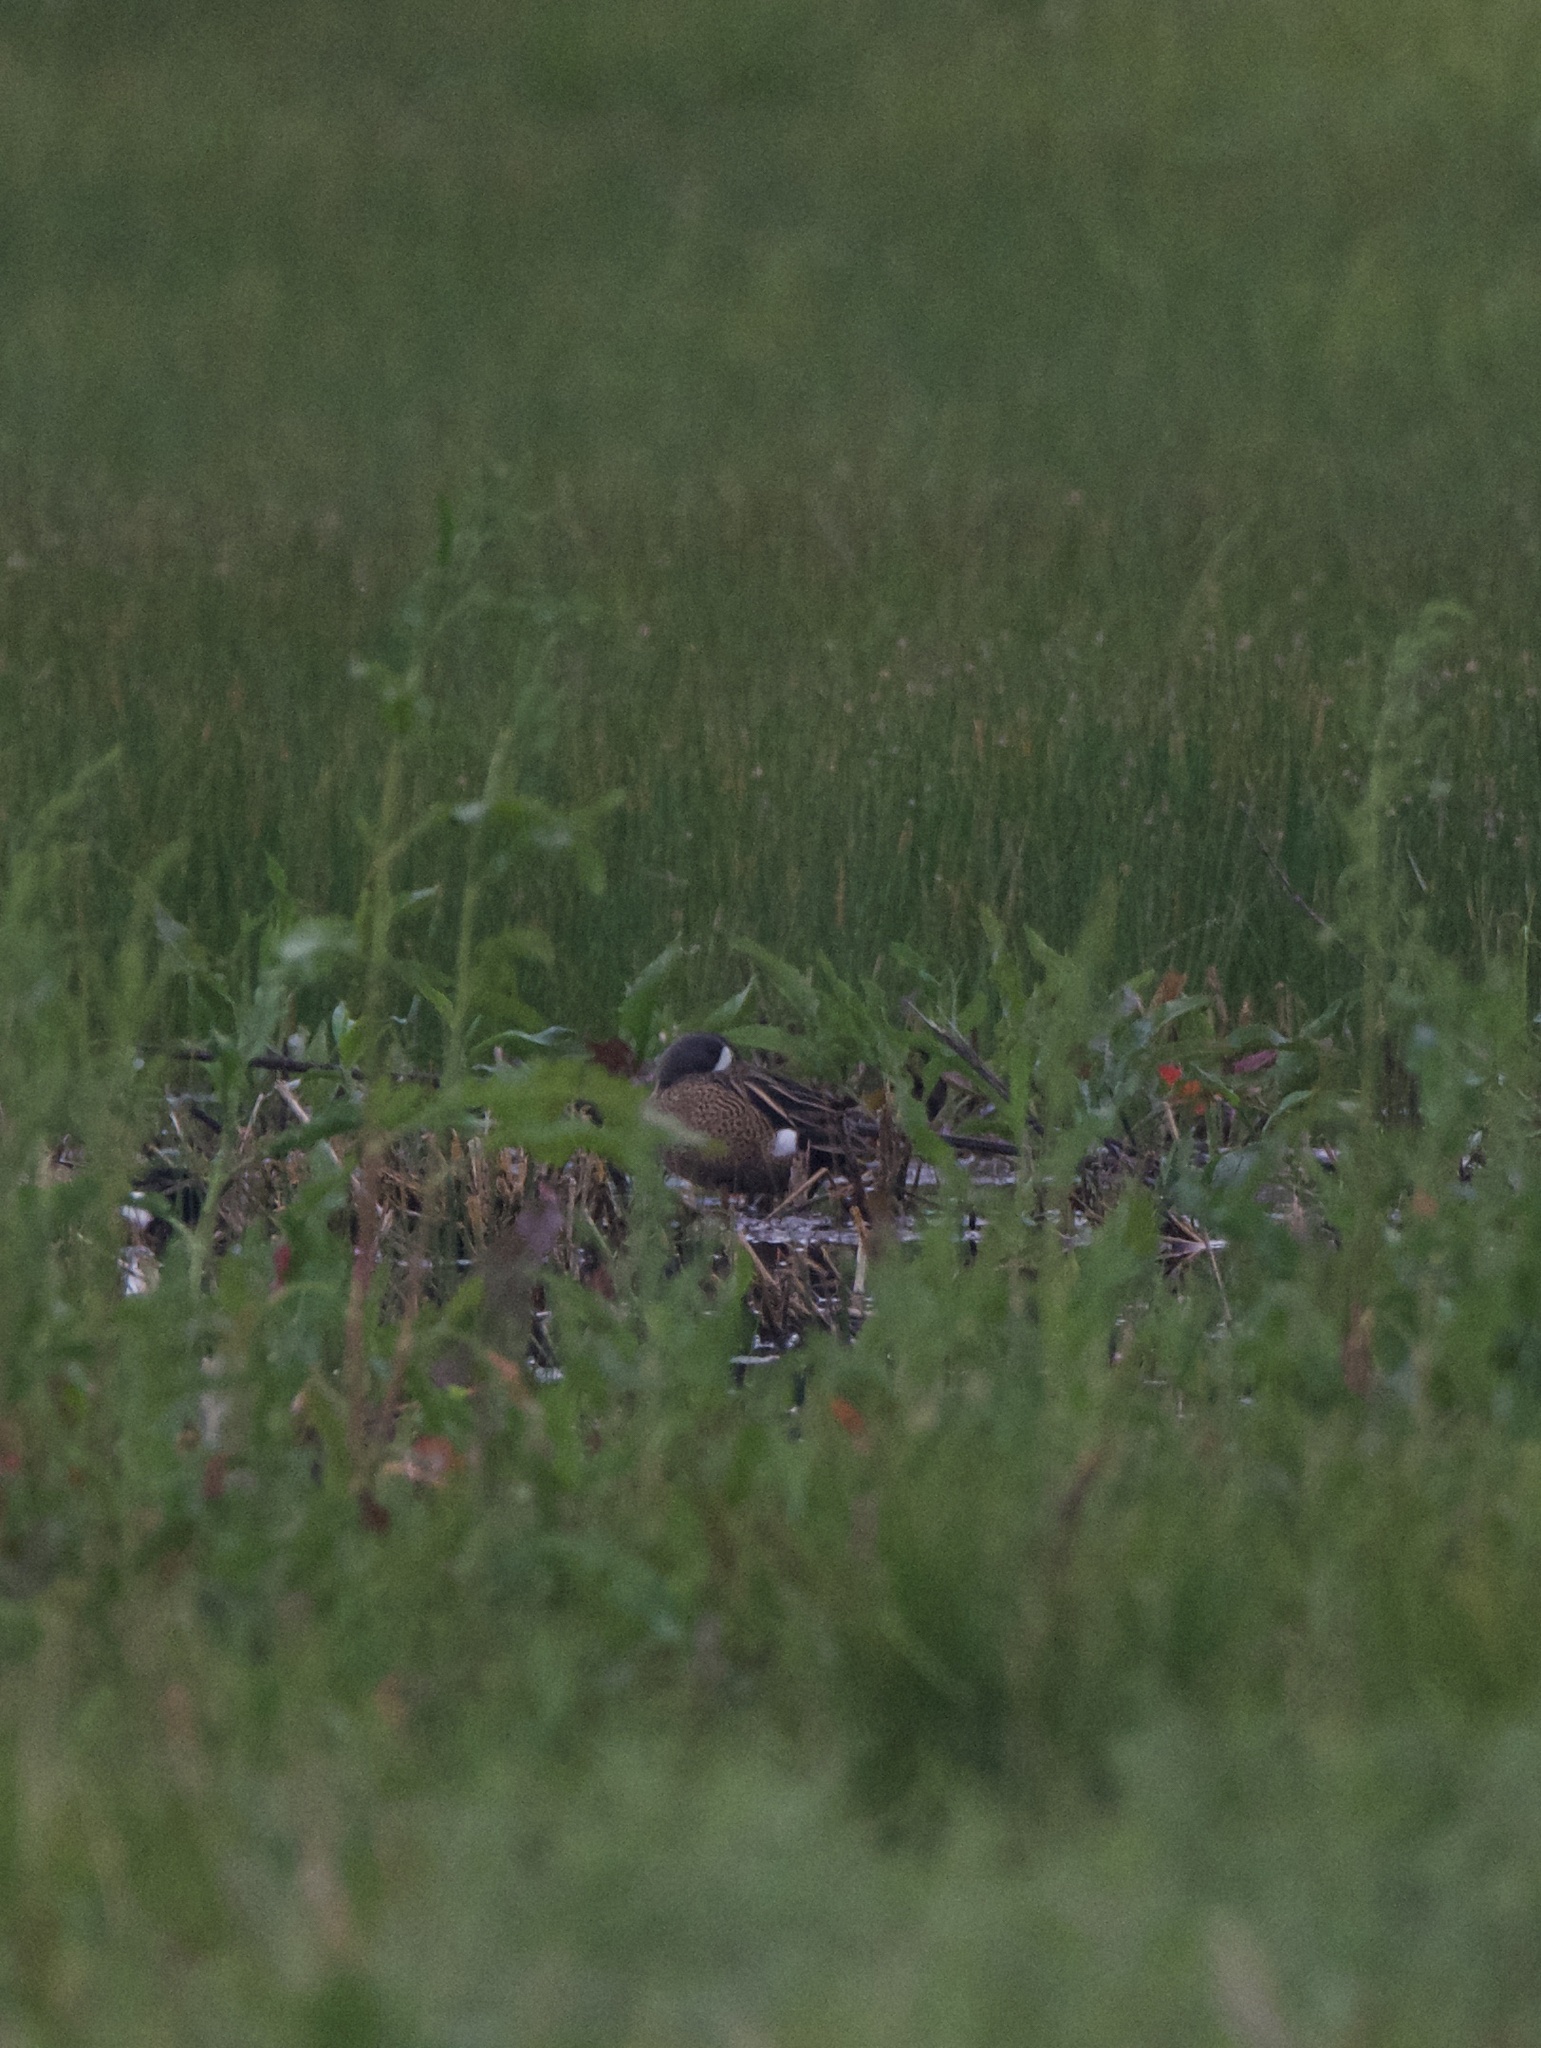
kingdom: Animalia
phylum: Chordata
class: Aves
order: Anseriformes
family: Anatidae
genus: Spatula
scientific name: Spatula discors
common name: Blue-winged teal
